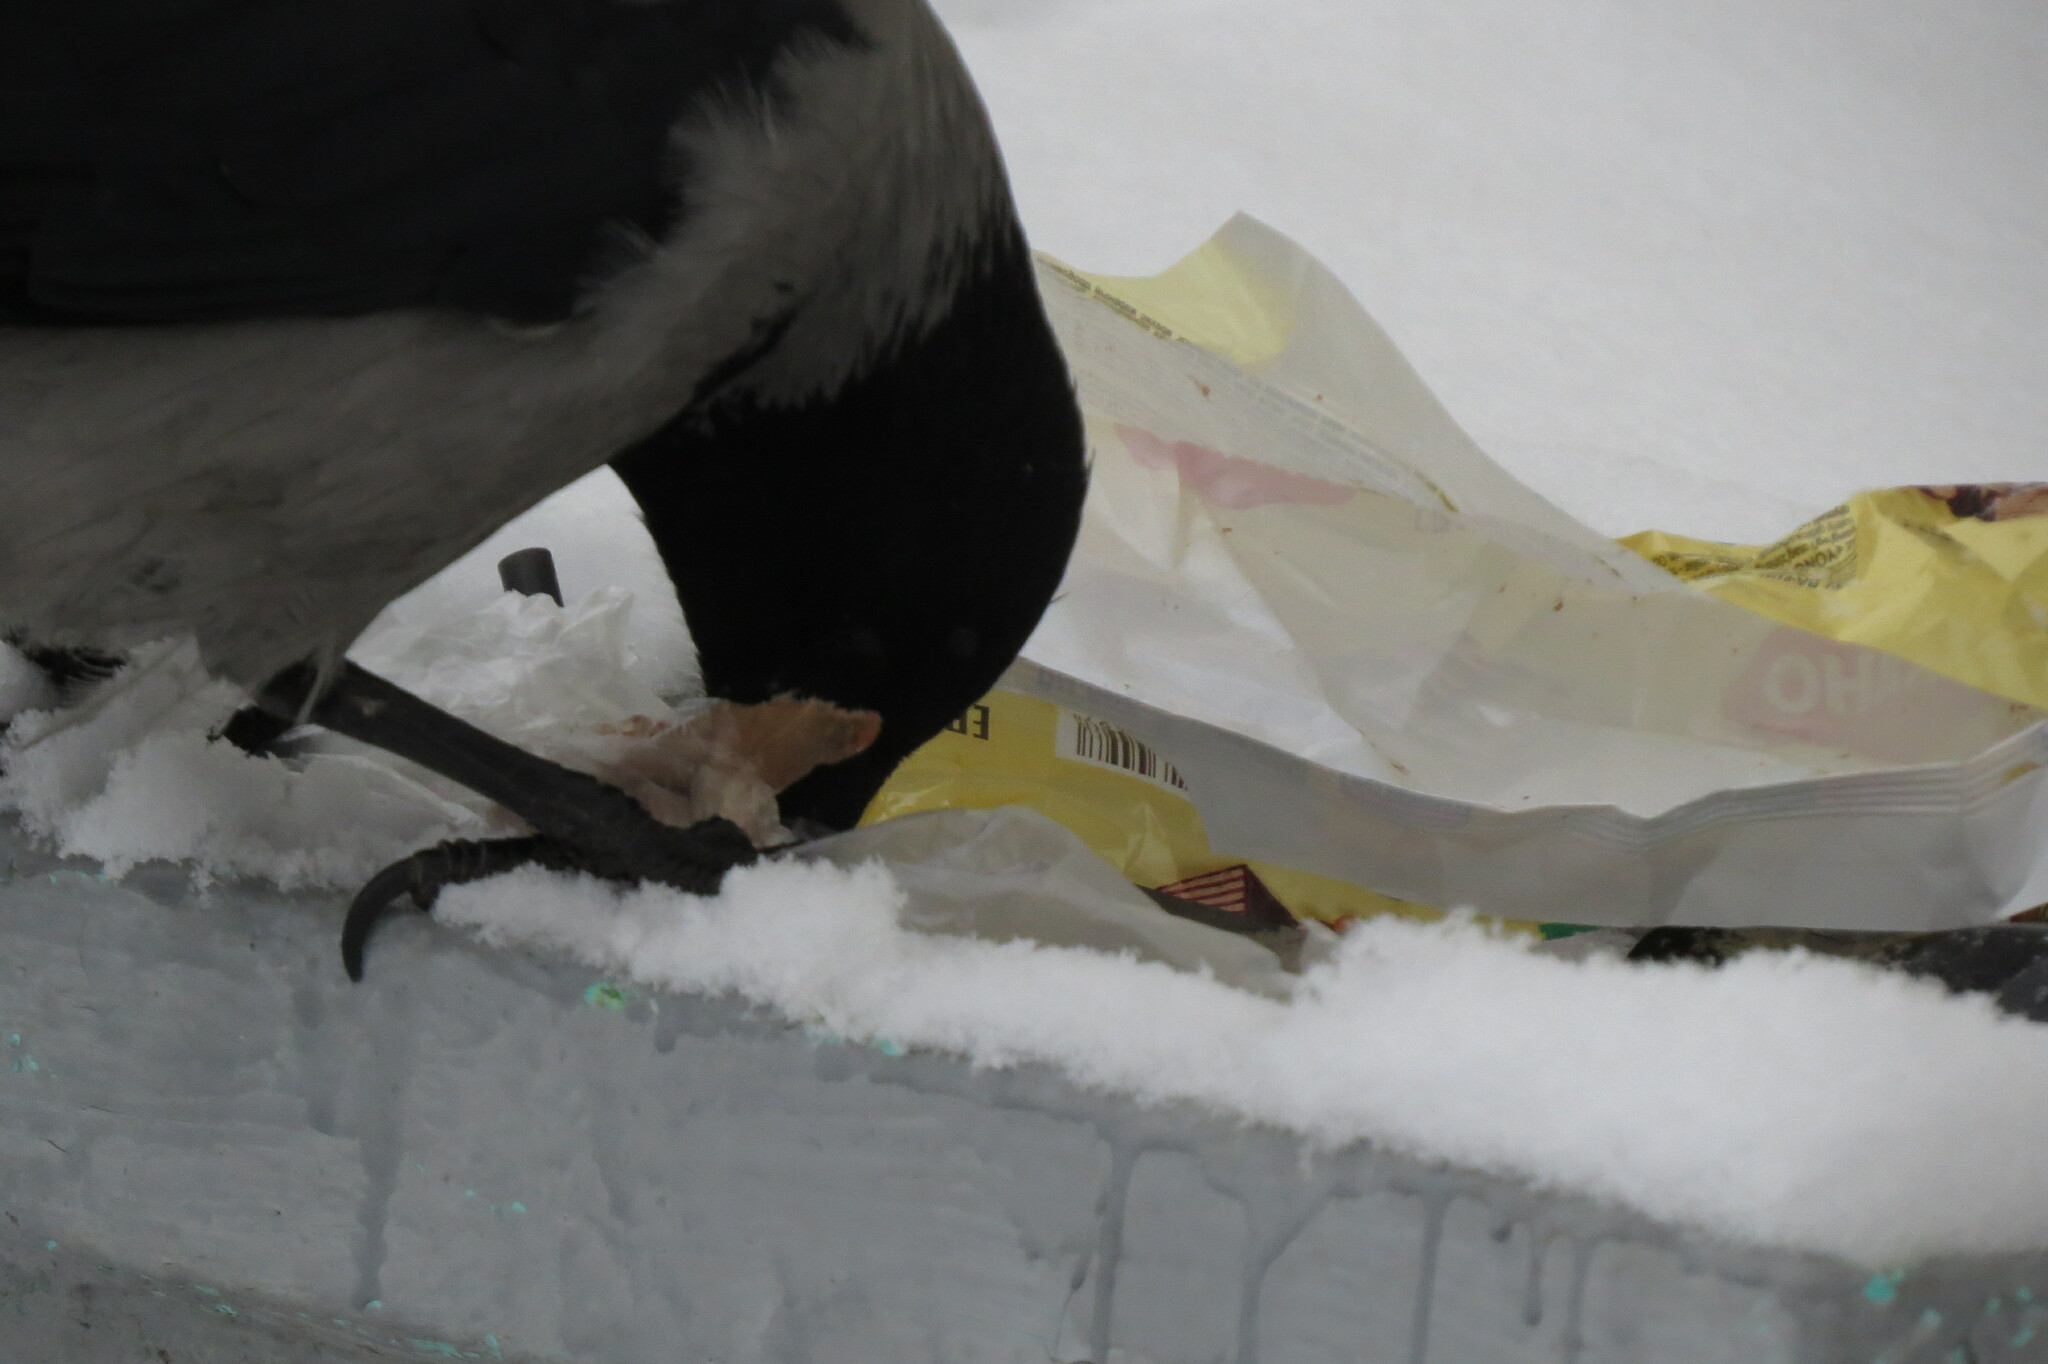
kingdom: Animalia
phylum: Chordata
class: Aves
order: Passeriformes
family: Corvidae
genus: Corvus
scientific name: Corvus cornix
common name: Hooded crow
